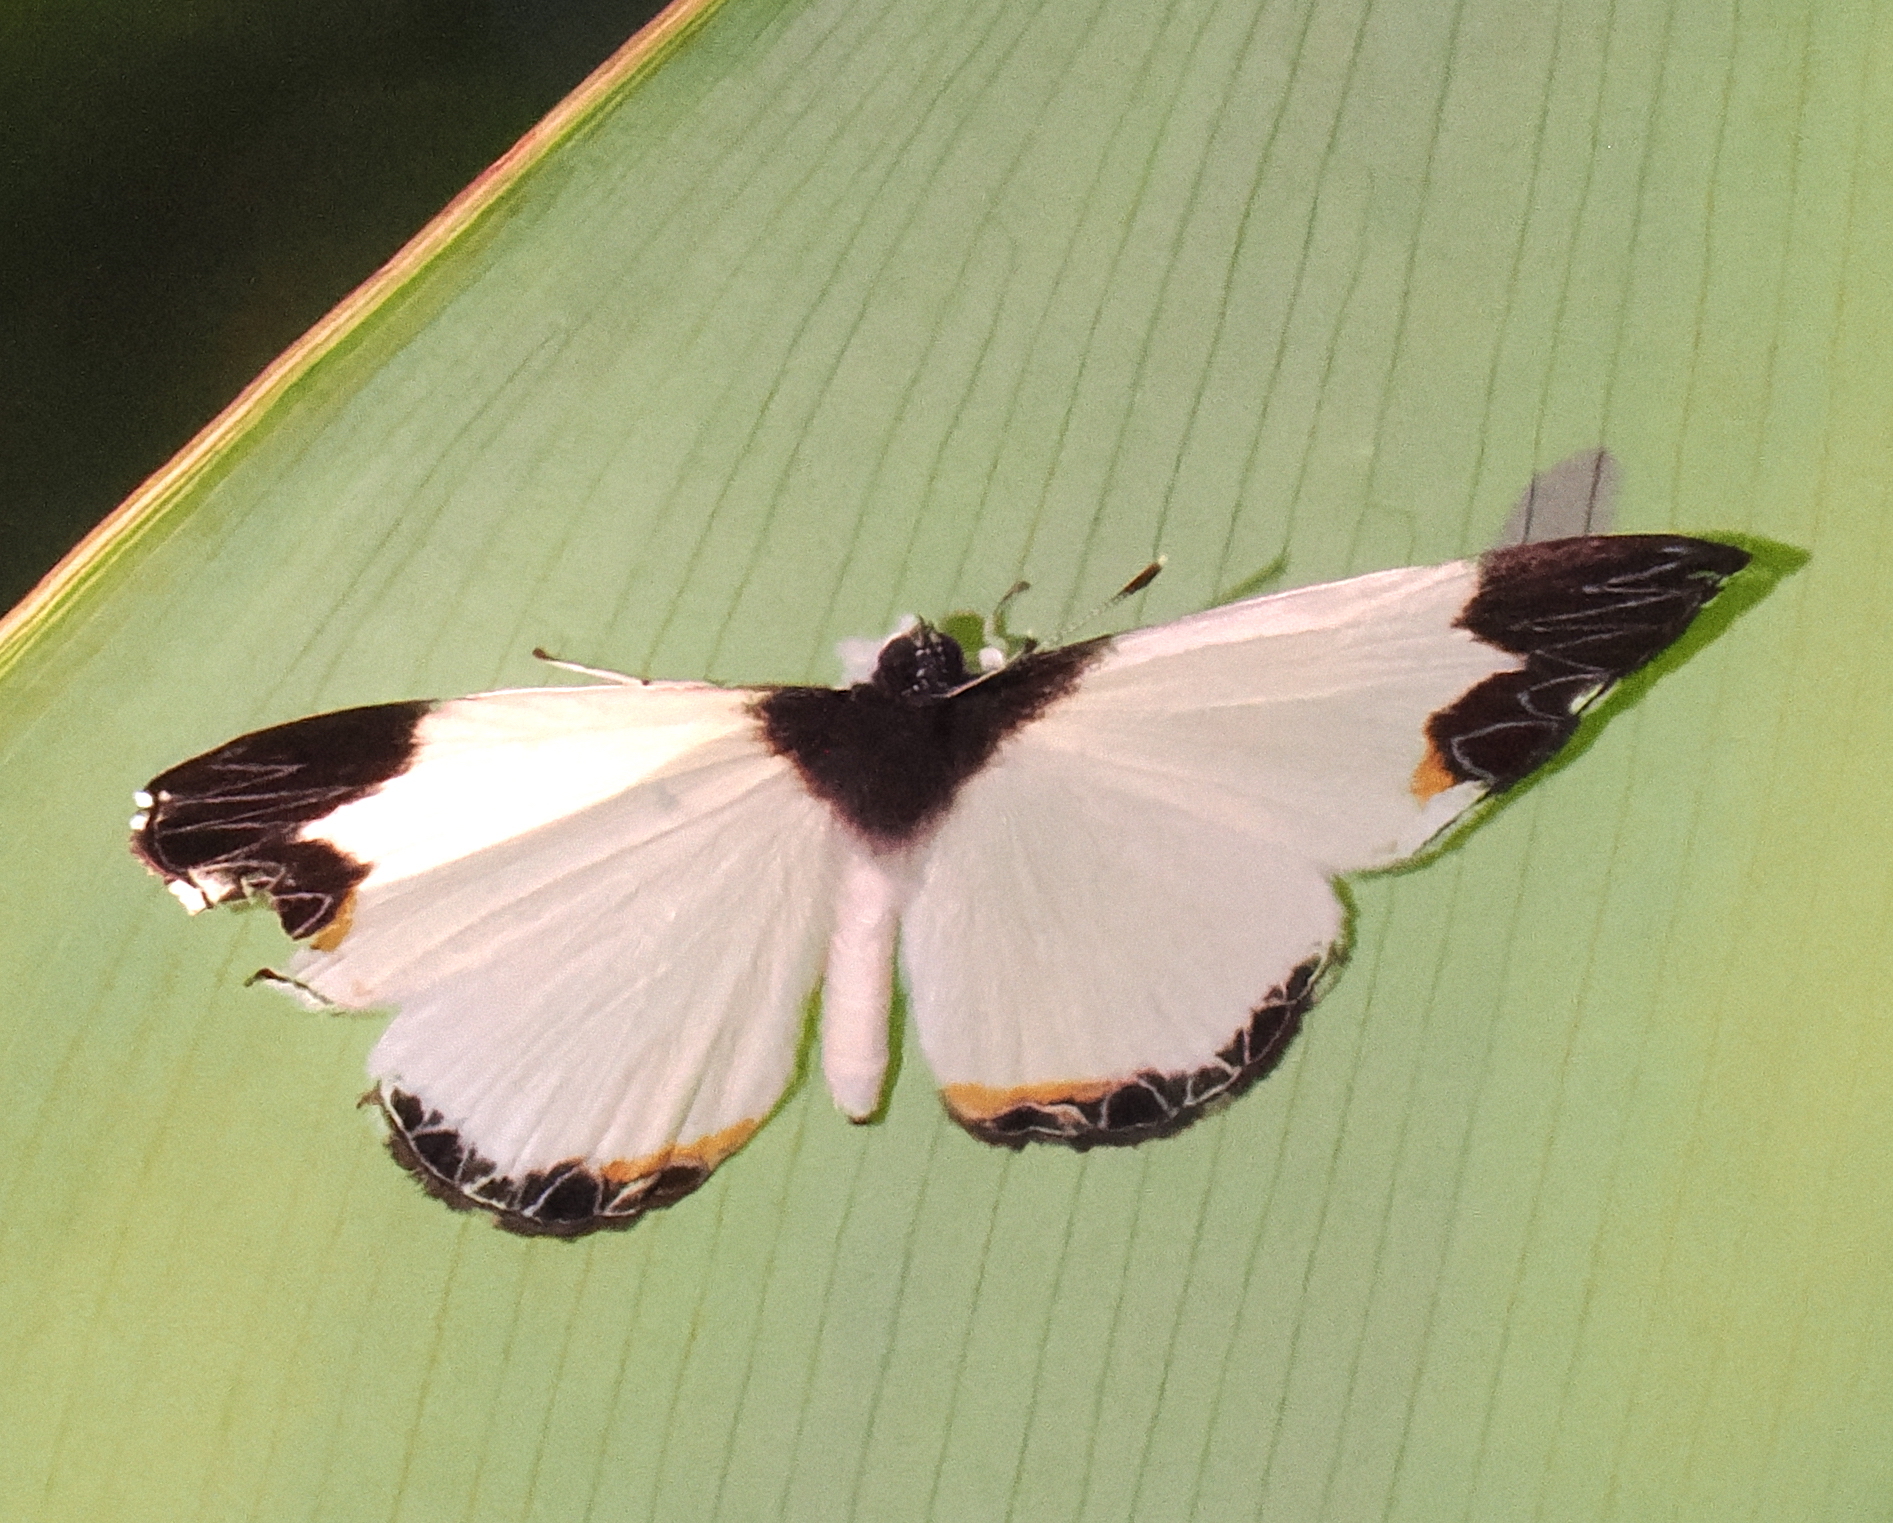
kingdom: Animalia
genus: Nymphidium
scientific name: Nymphidium ninias
